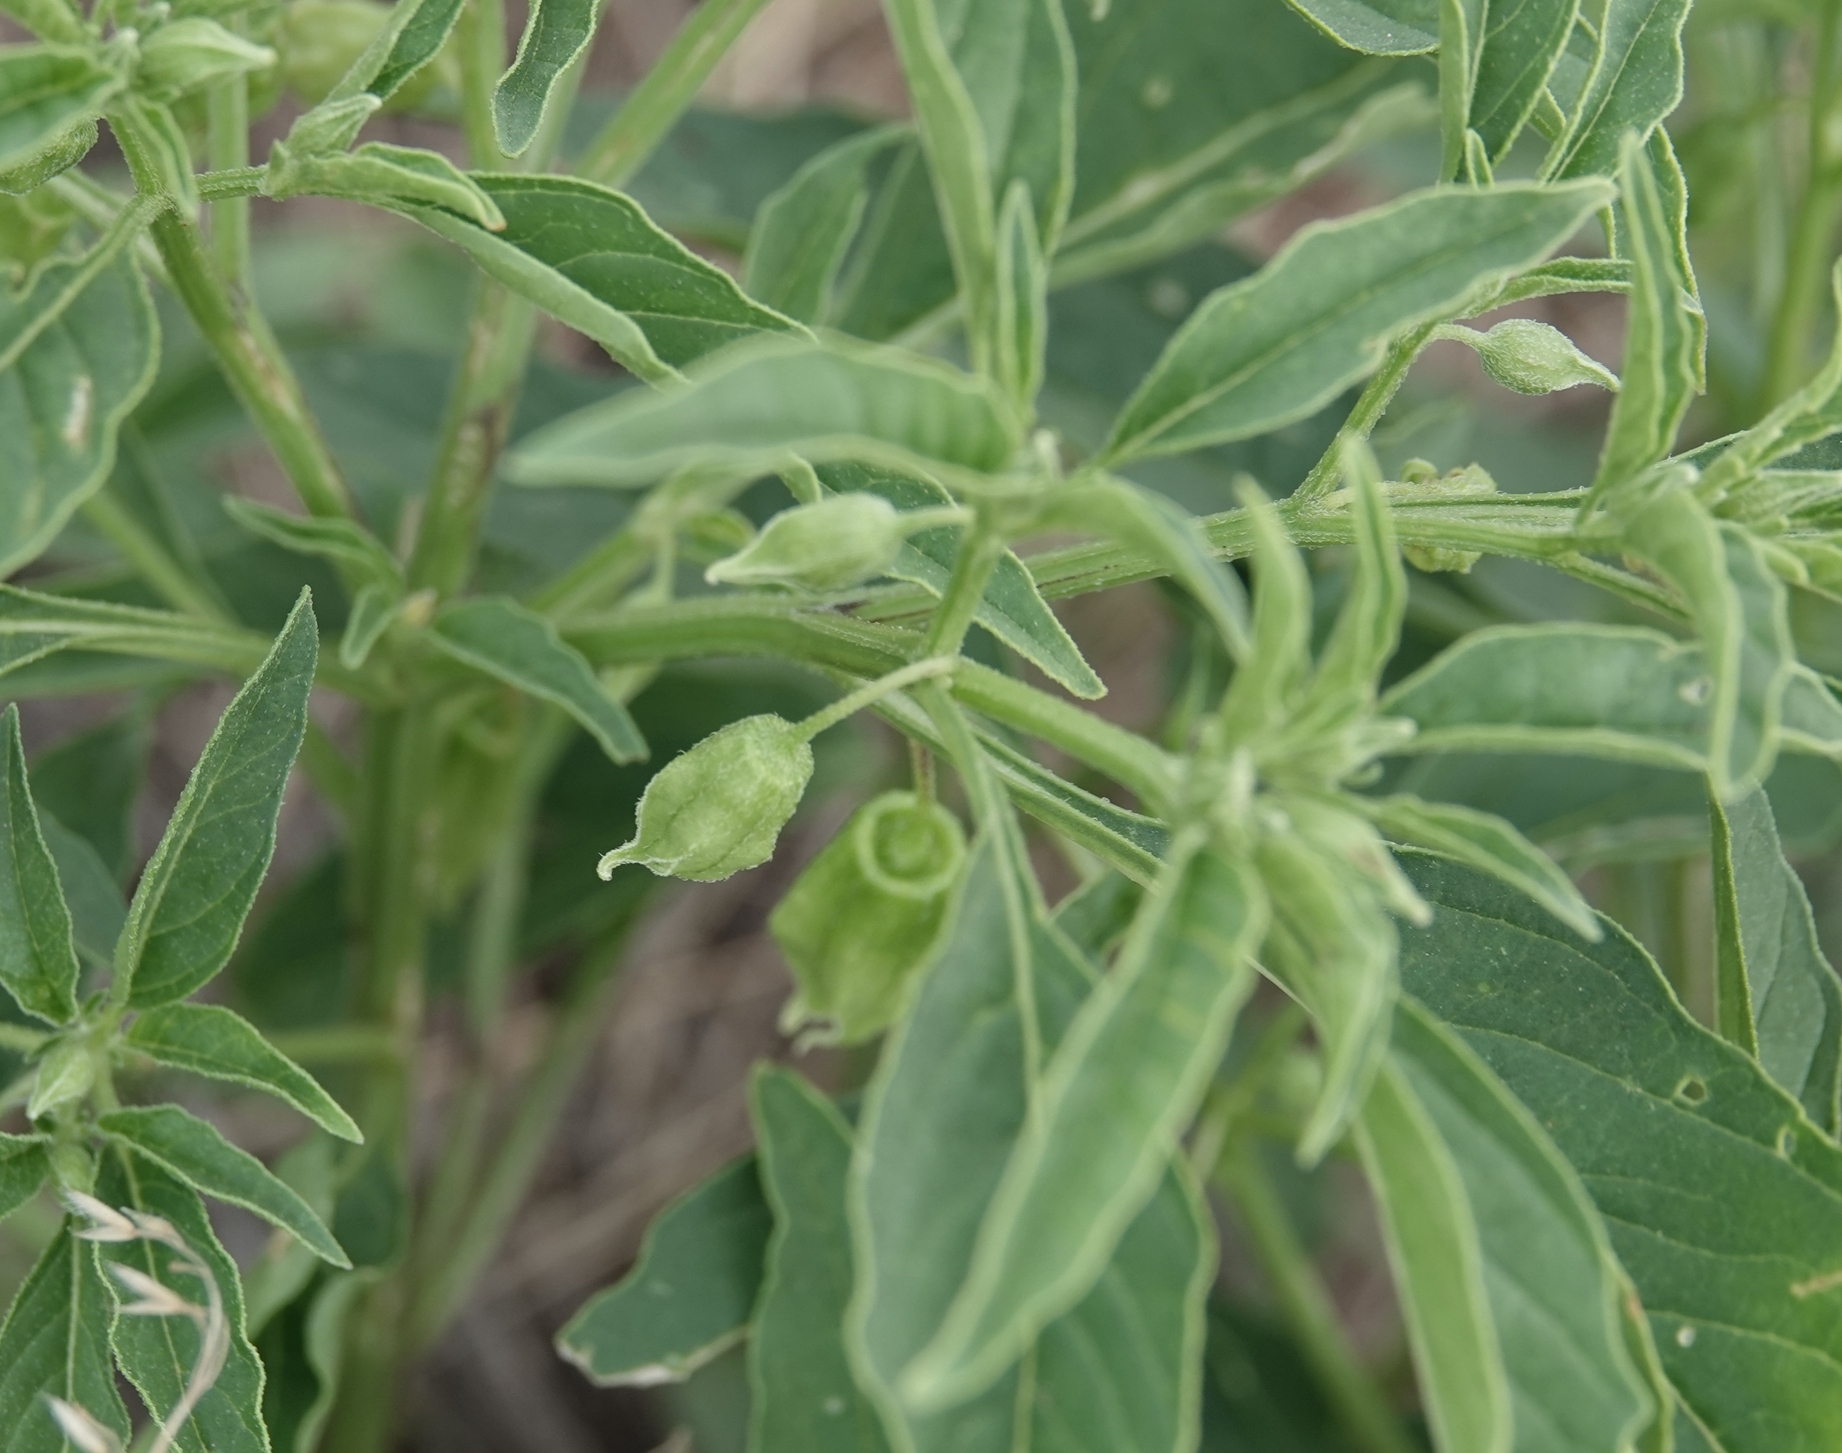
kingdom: Plantae
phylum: Tracheophyta
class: Magnoliopsida
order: Solanales
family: Solanaceae
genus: Physalis
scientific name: Physalis longifolia
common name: Common ground-cherry
